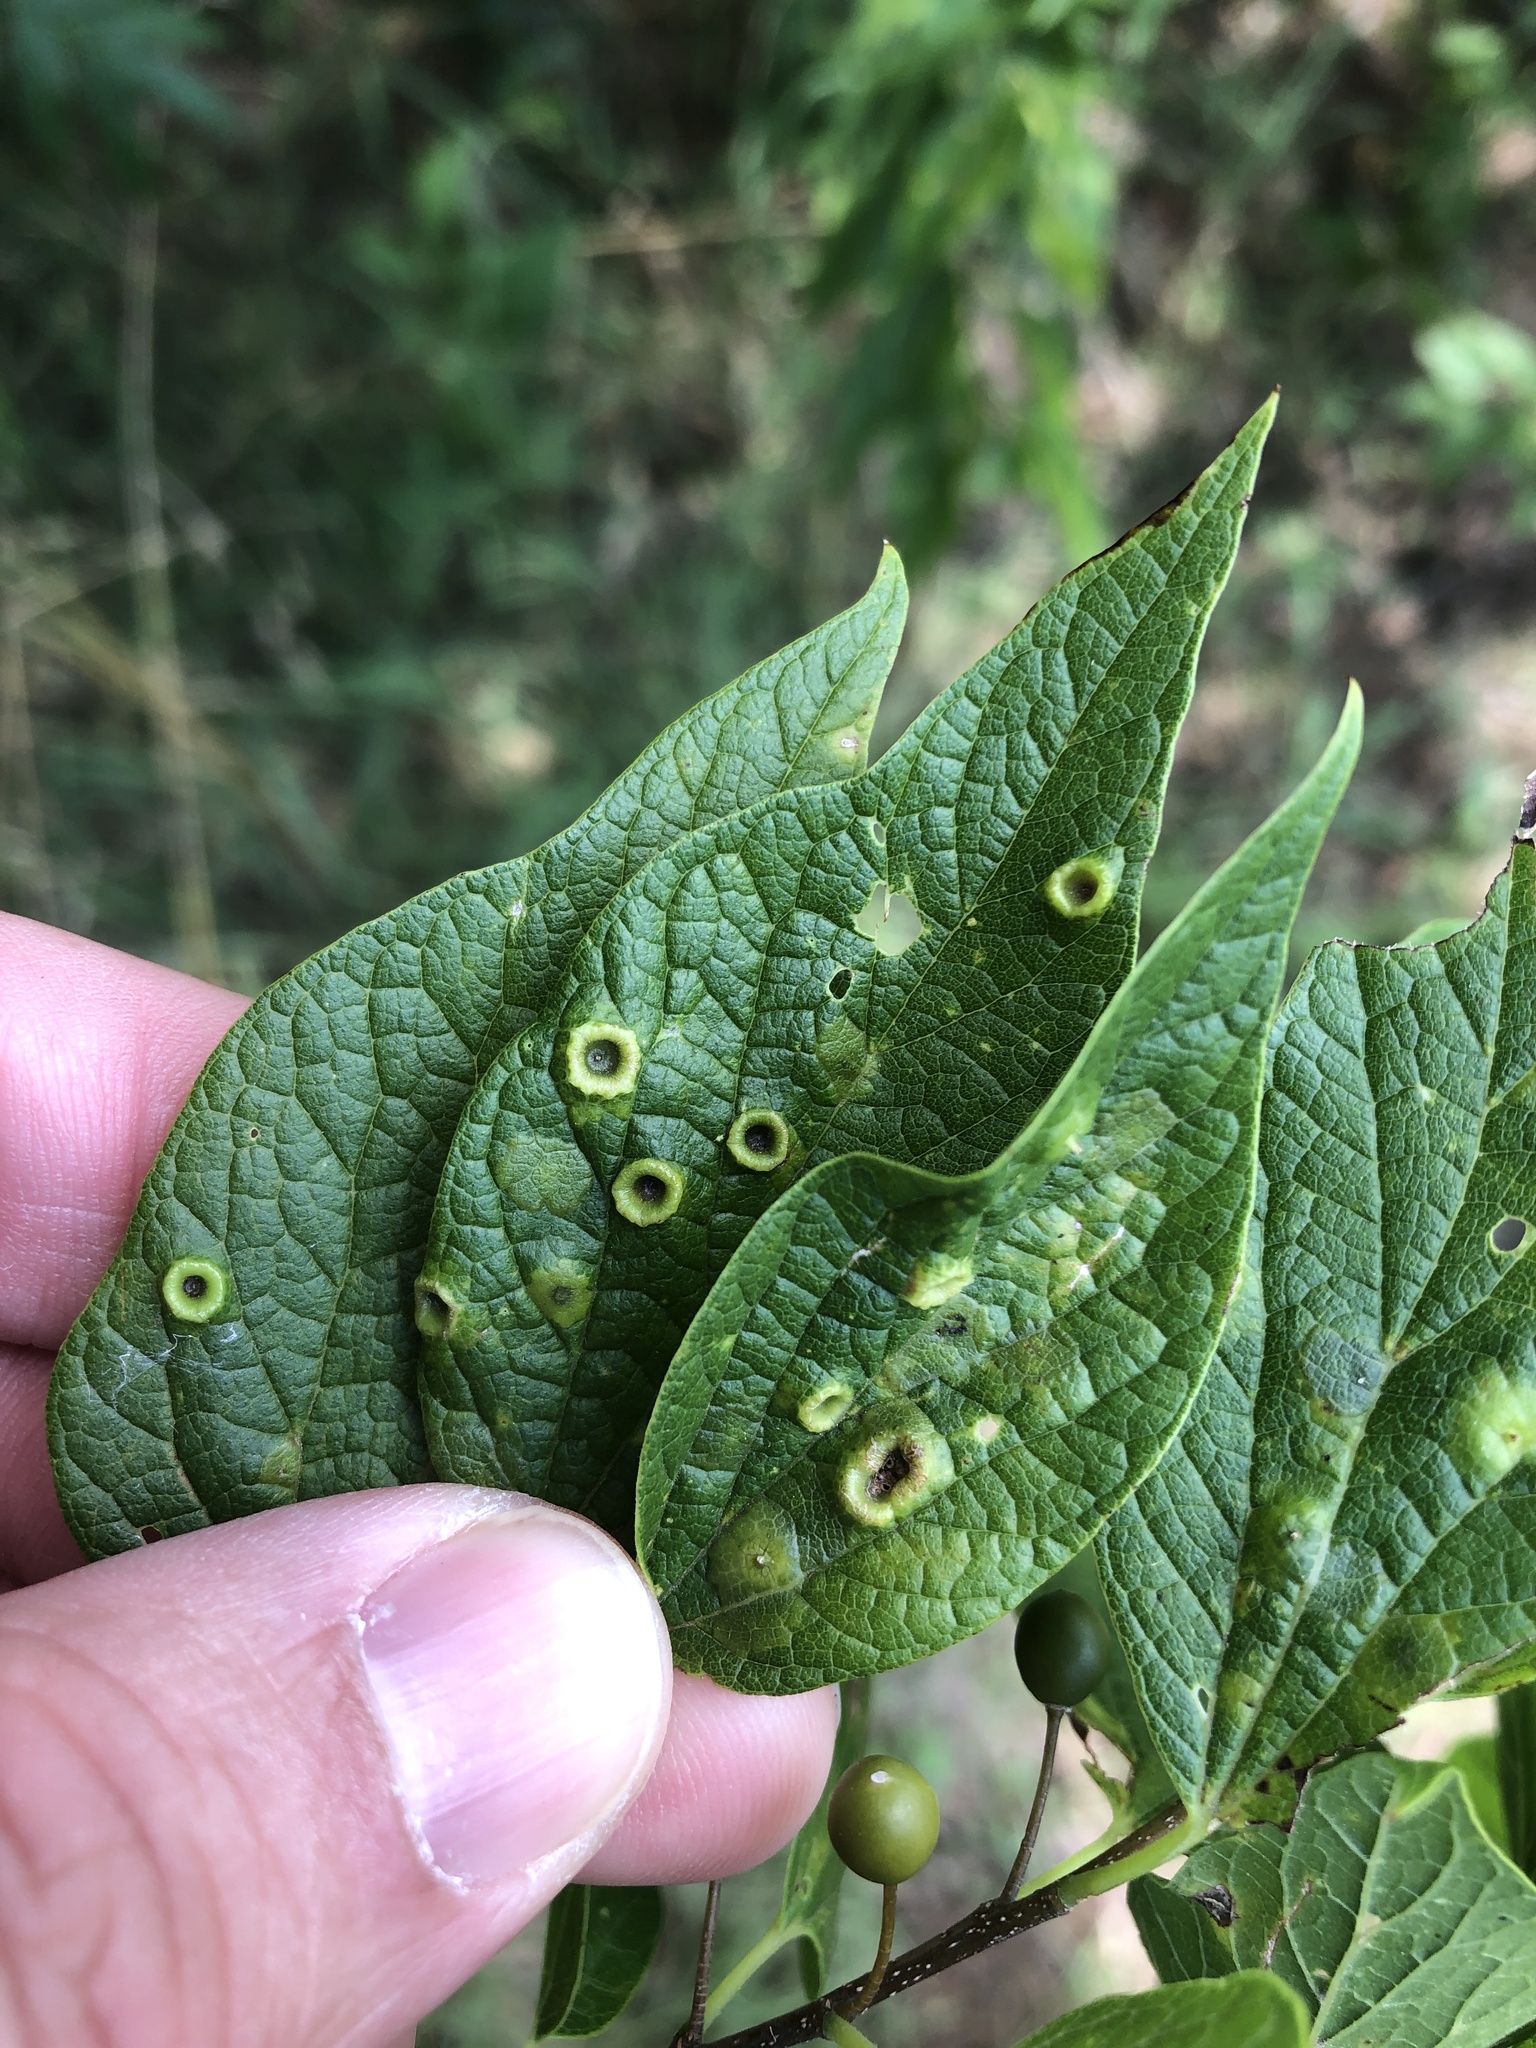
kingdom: Animalia
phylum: Arthropoda
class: Insecta
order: Hemiptera
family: Aphalaridae
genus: Pachypsylla
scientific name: Pachypsylla celtidismamma
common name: Hackberry nipplegall psyllid
